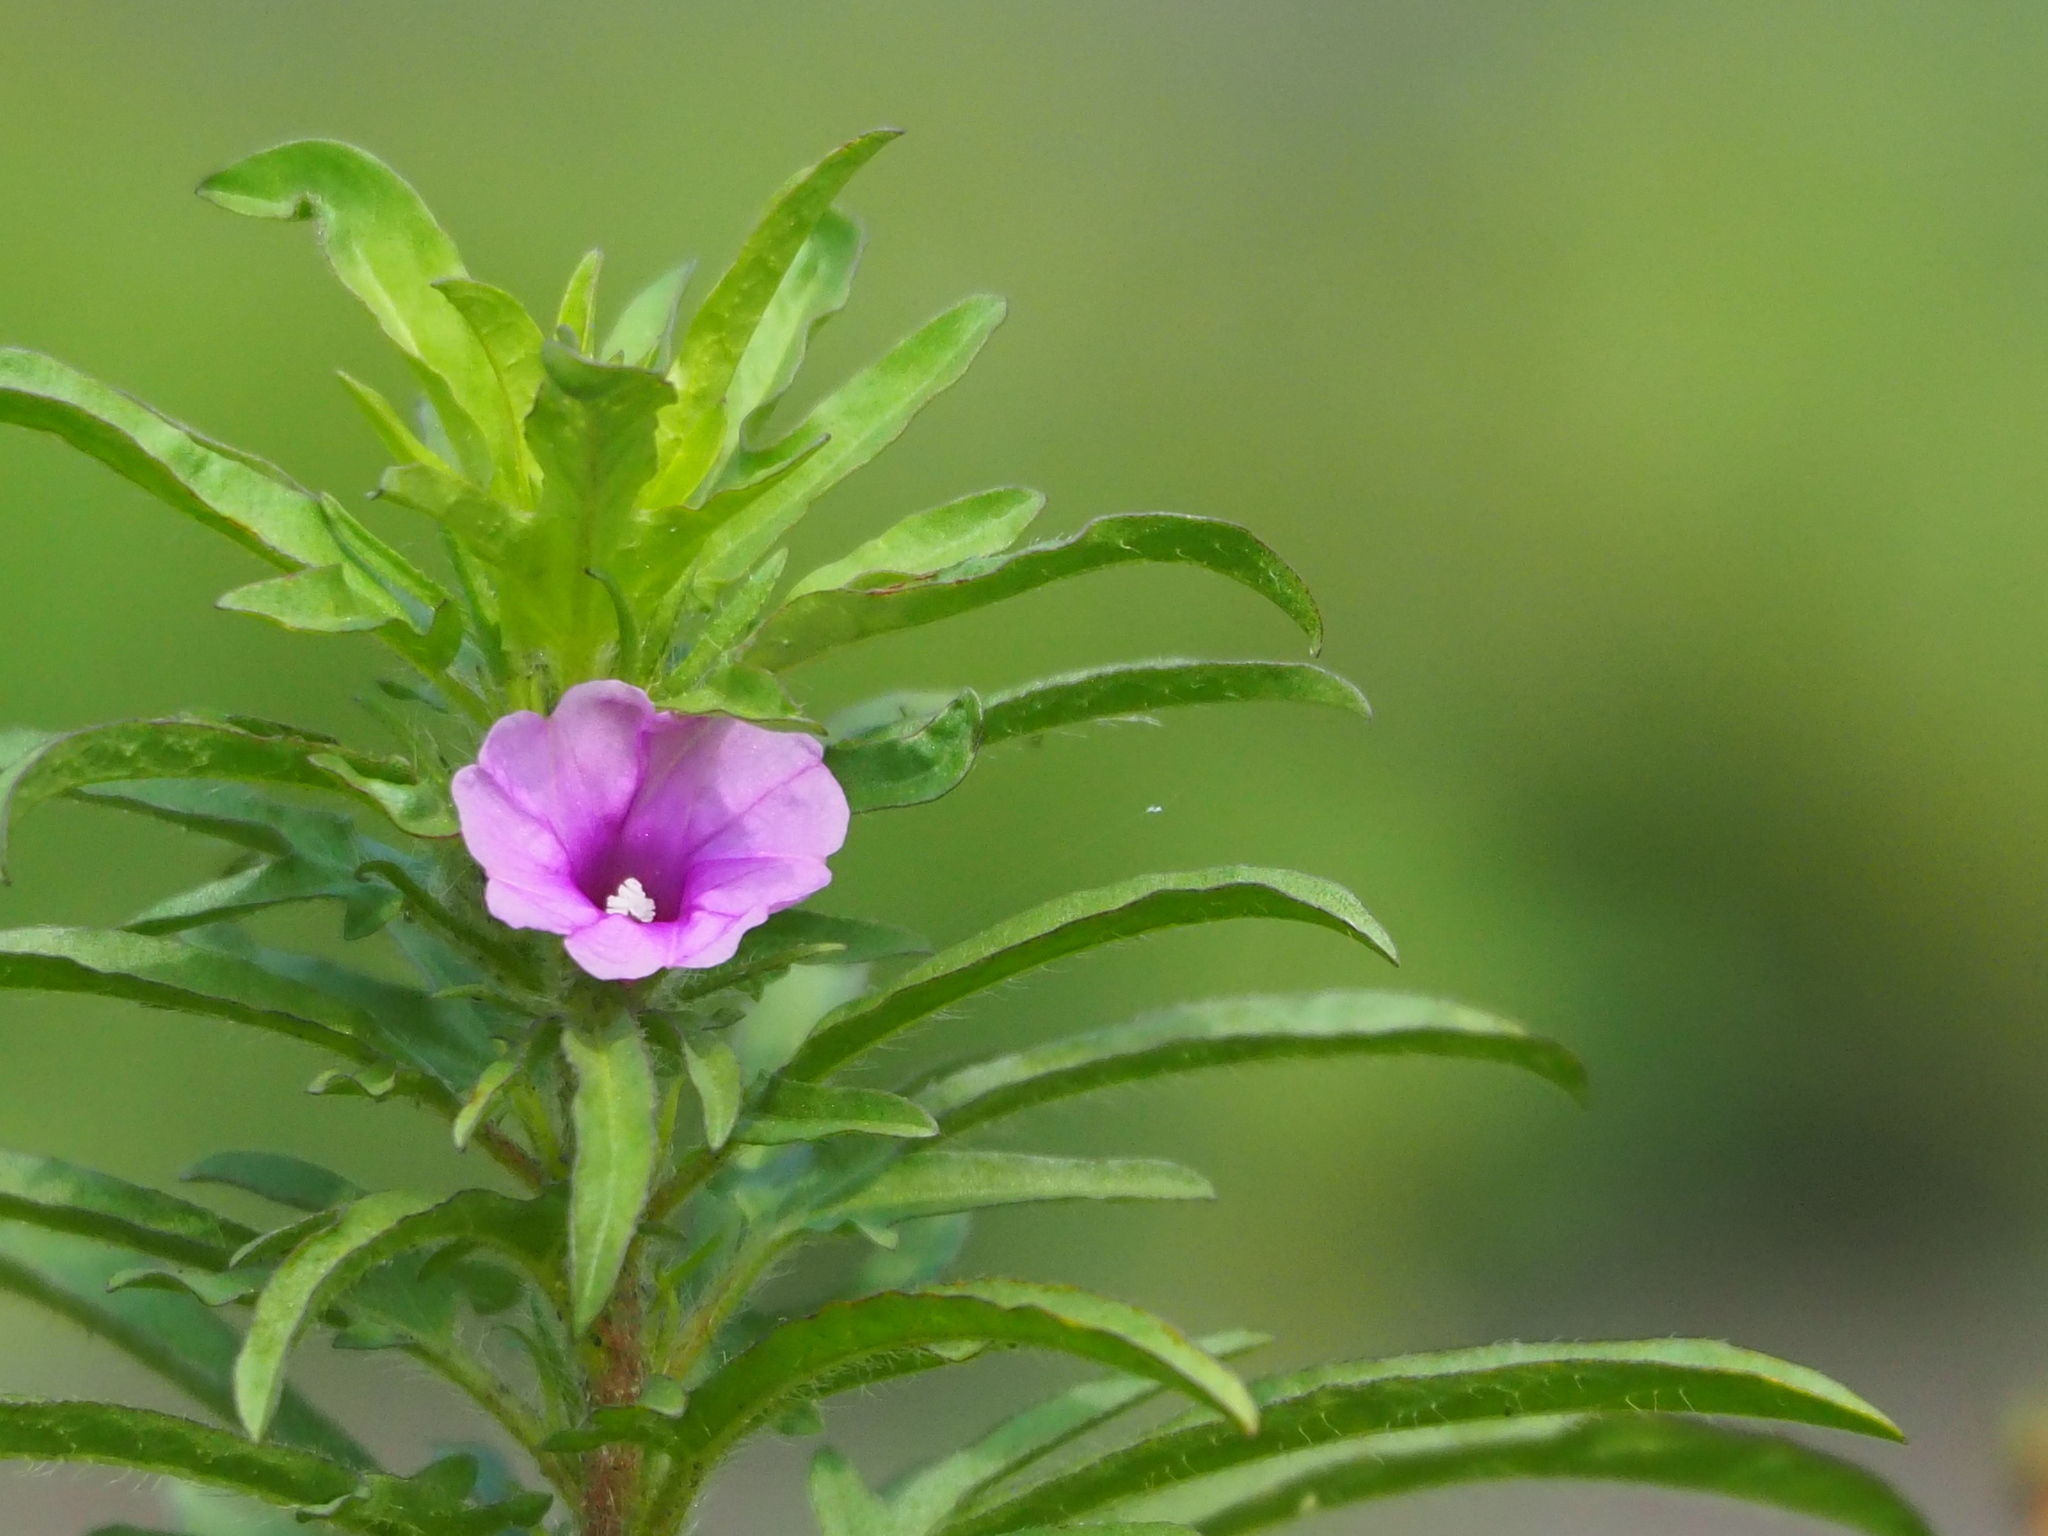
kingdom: Plantae
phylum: Tracheophyta
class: Magnoliopsida
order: Solanales
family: Convolvulaceae
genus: Ipomoea
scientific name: Ipomoea polymorpha
